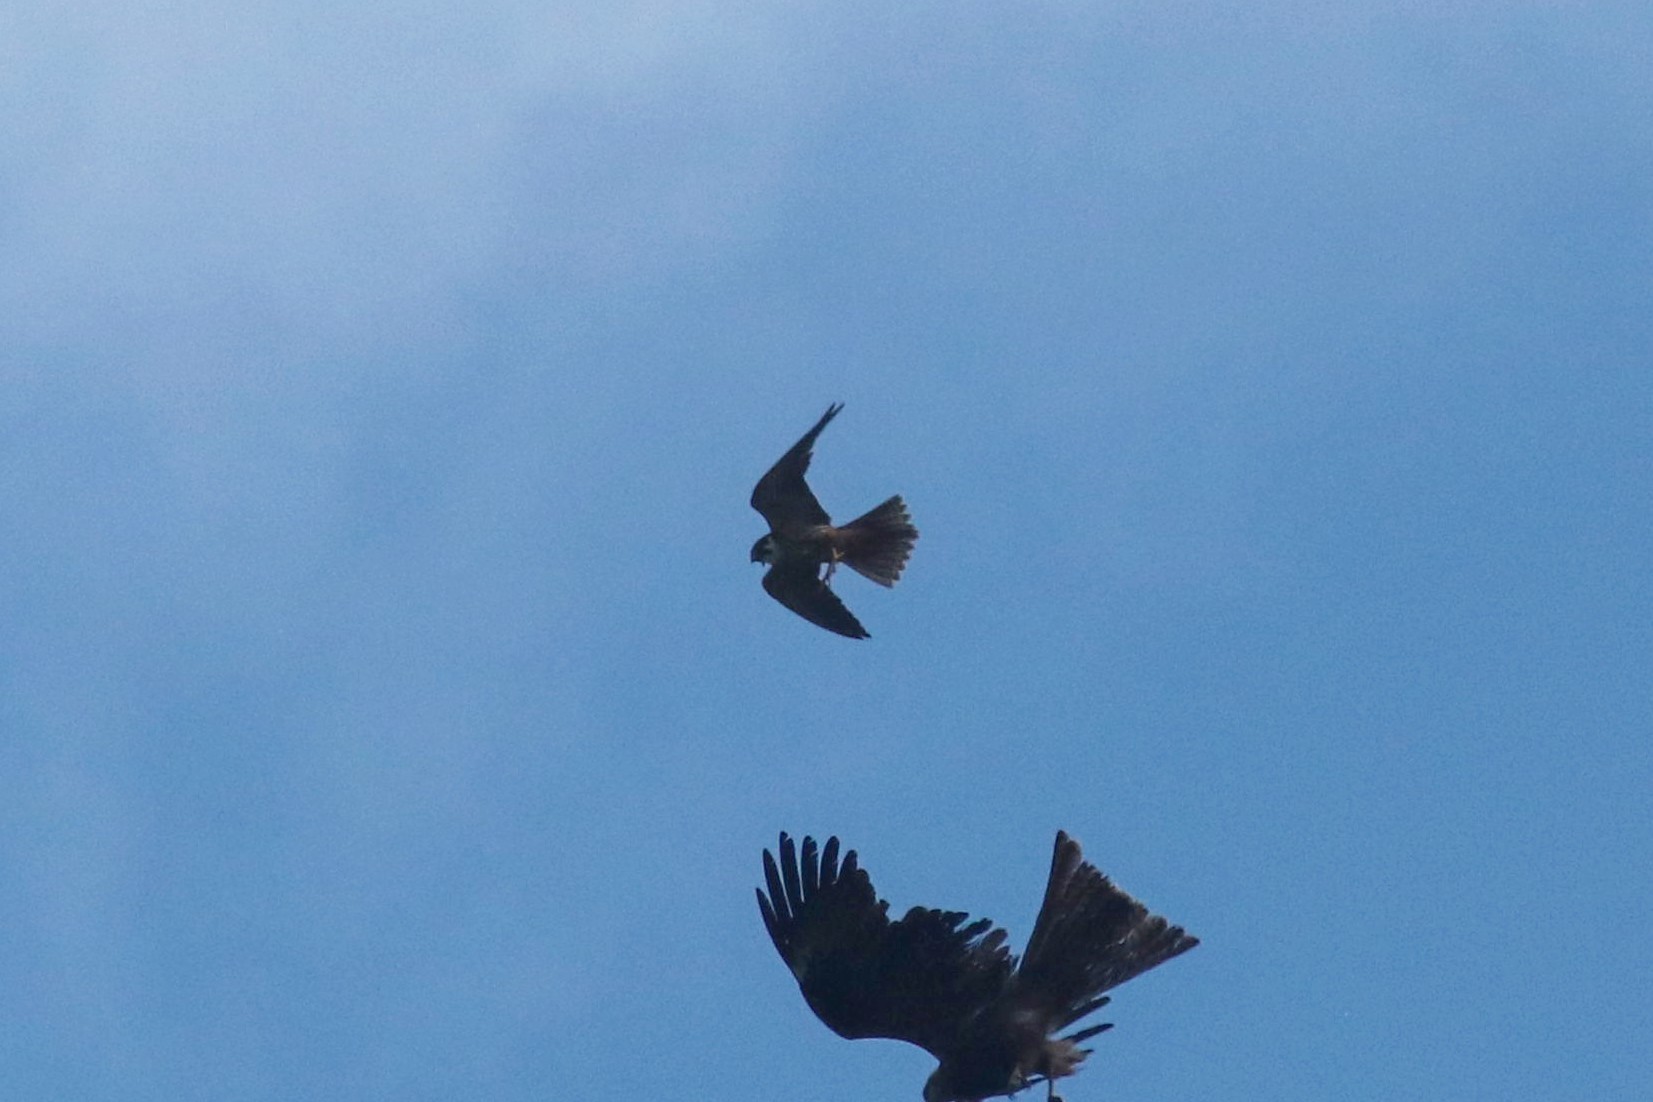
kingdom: Animalia
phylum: Chordata
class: Aves
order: Falconiformes
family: Falconidae
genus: Falco
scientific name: Falco subbuteo
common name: Eurasian hobby
